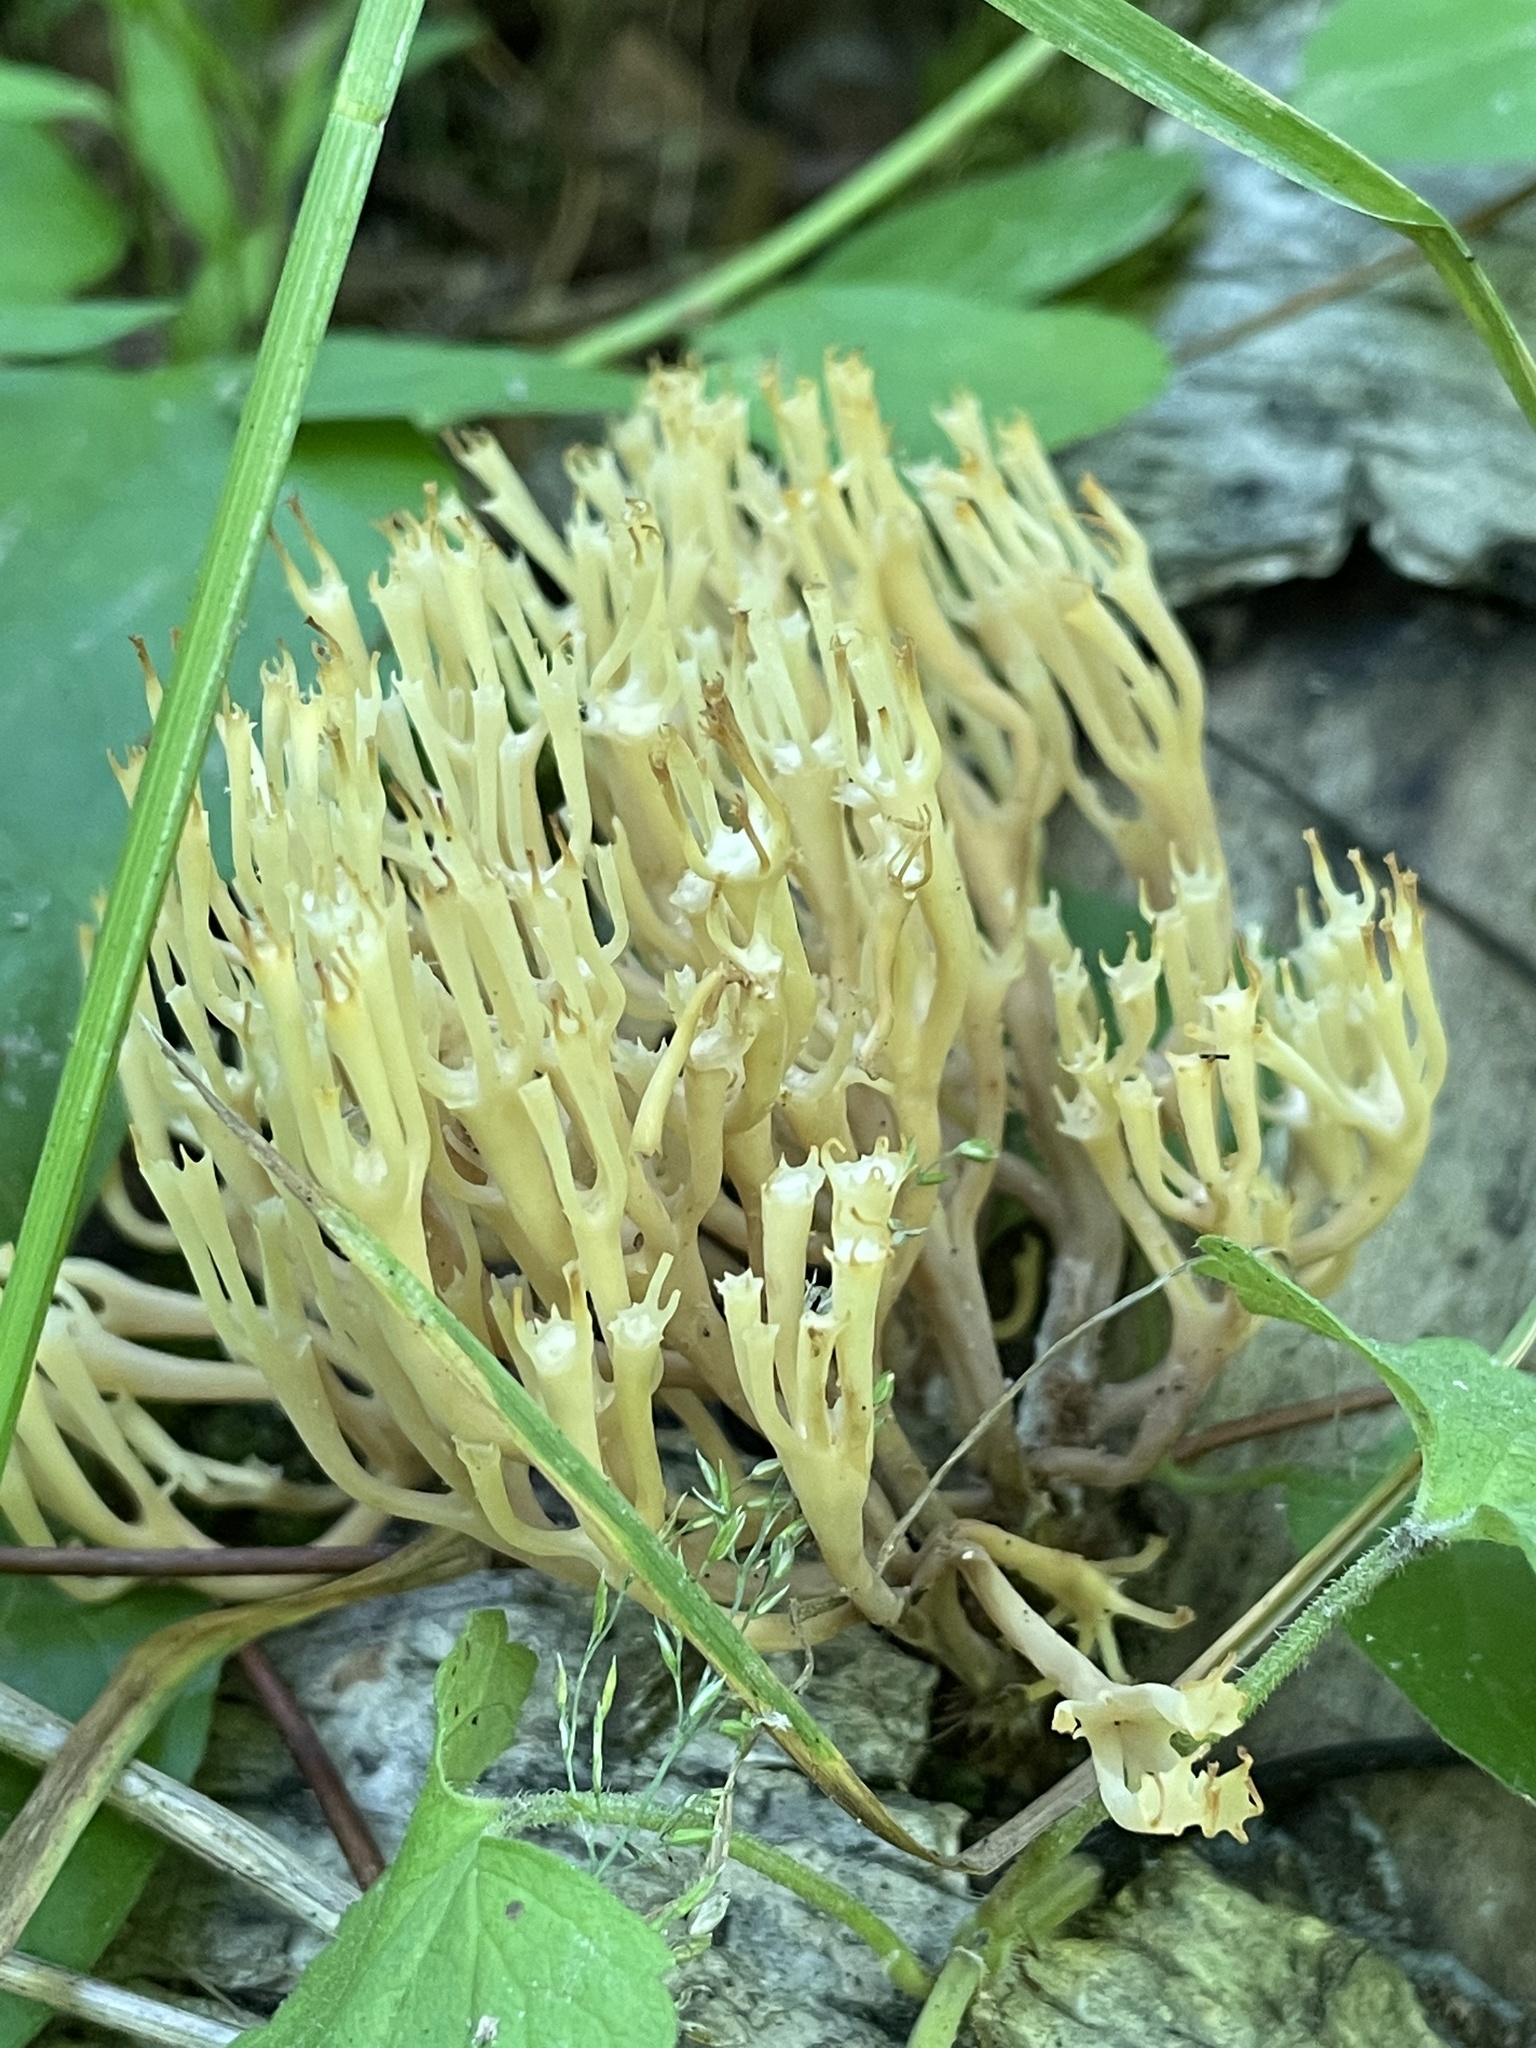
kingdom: Fungi
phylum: Basidiomycota
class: Agaricomycetes
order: Russulales
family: Auriscalpiaceae
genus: Artomyces
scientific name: Artomyces pyxidatus
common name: Crown-tipped coral fungus
